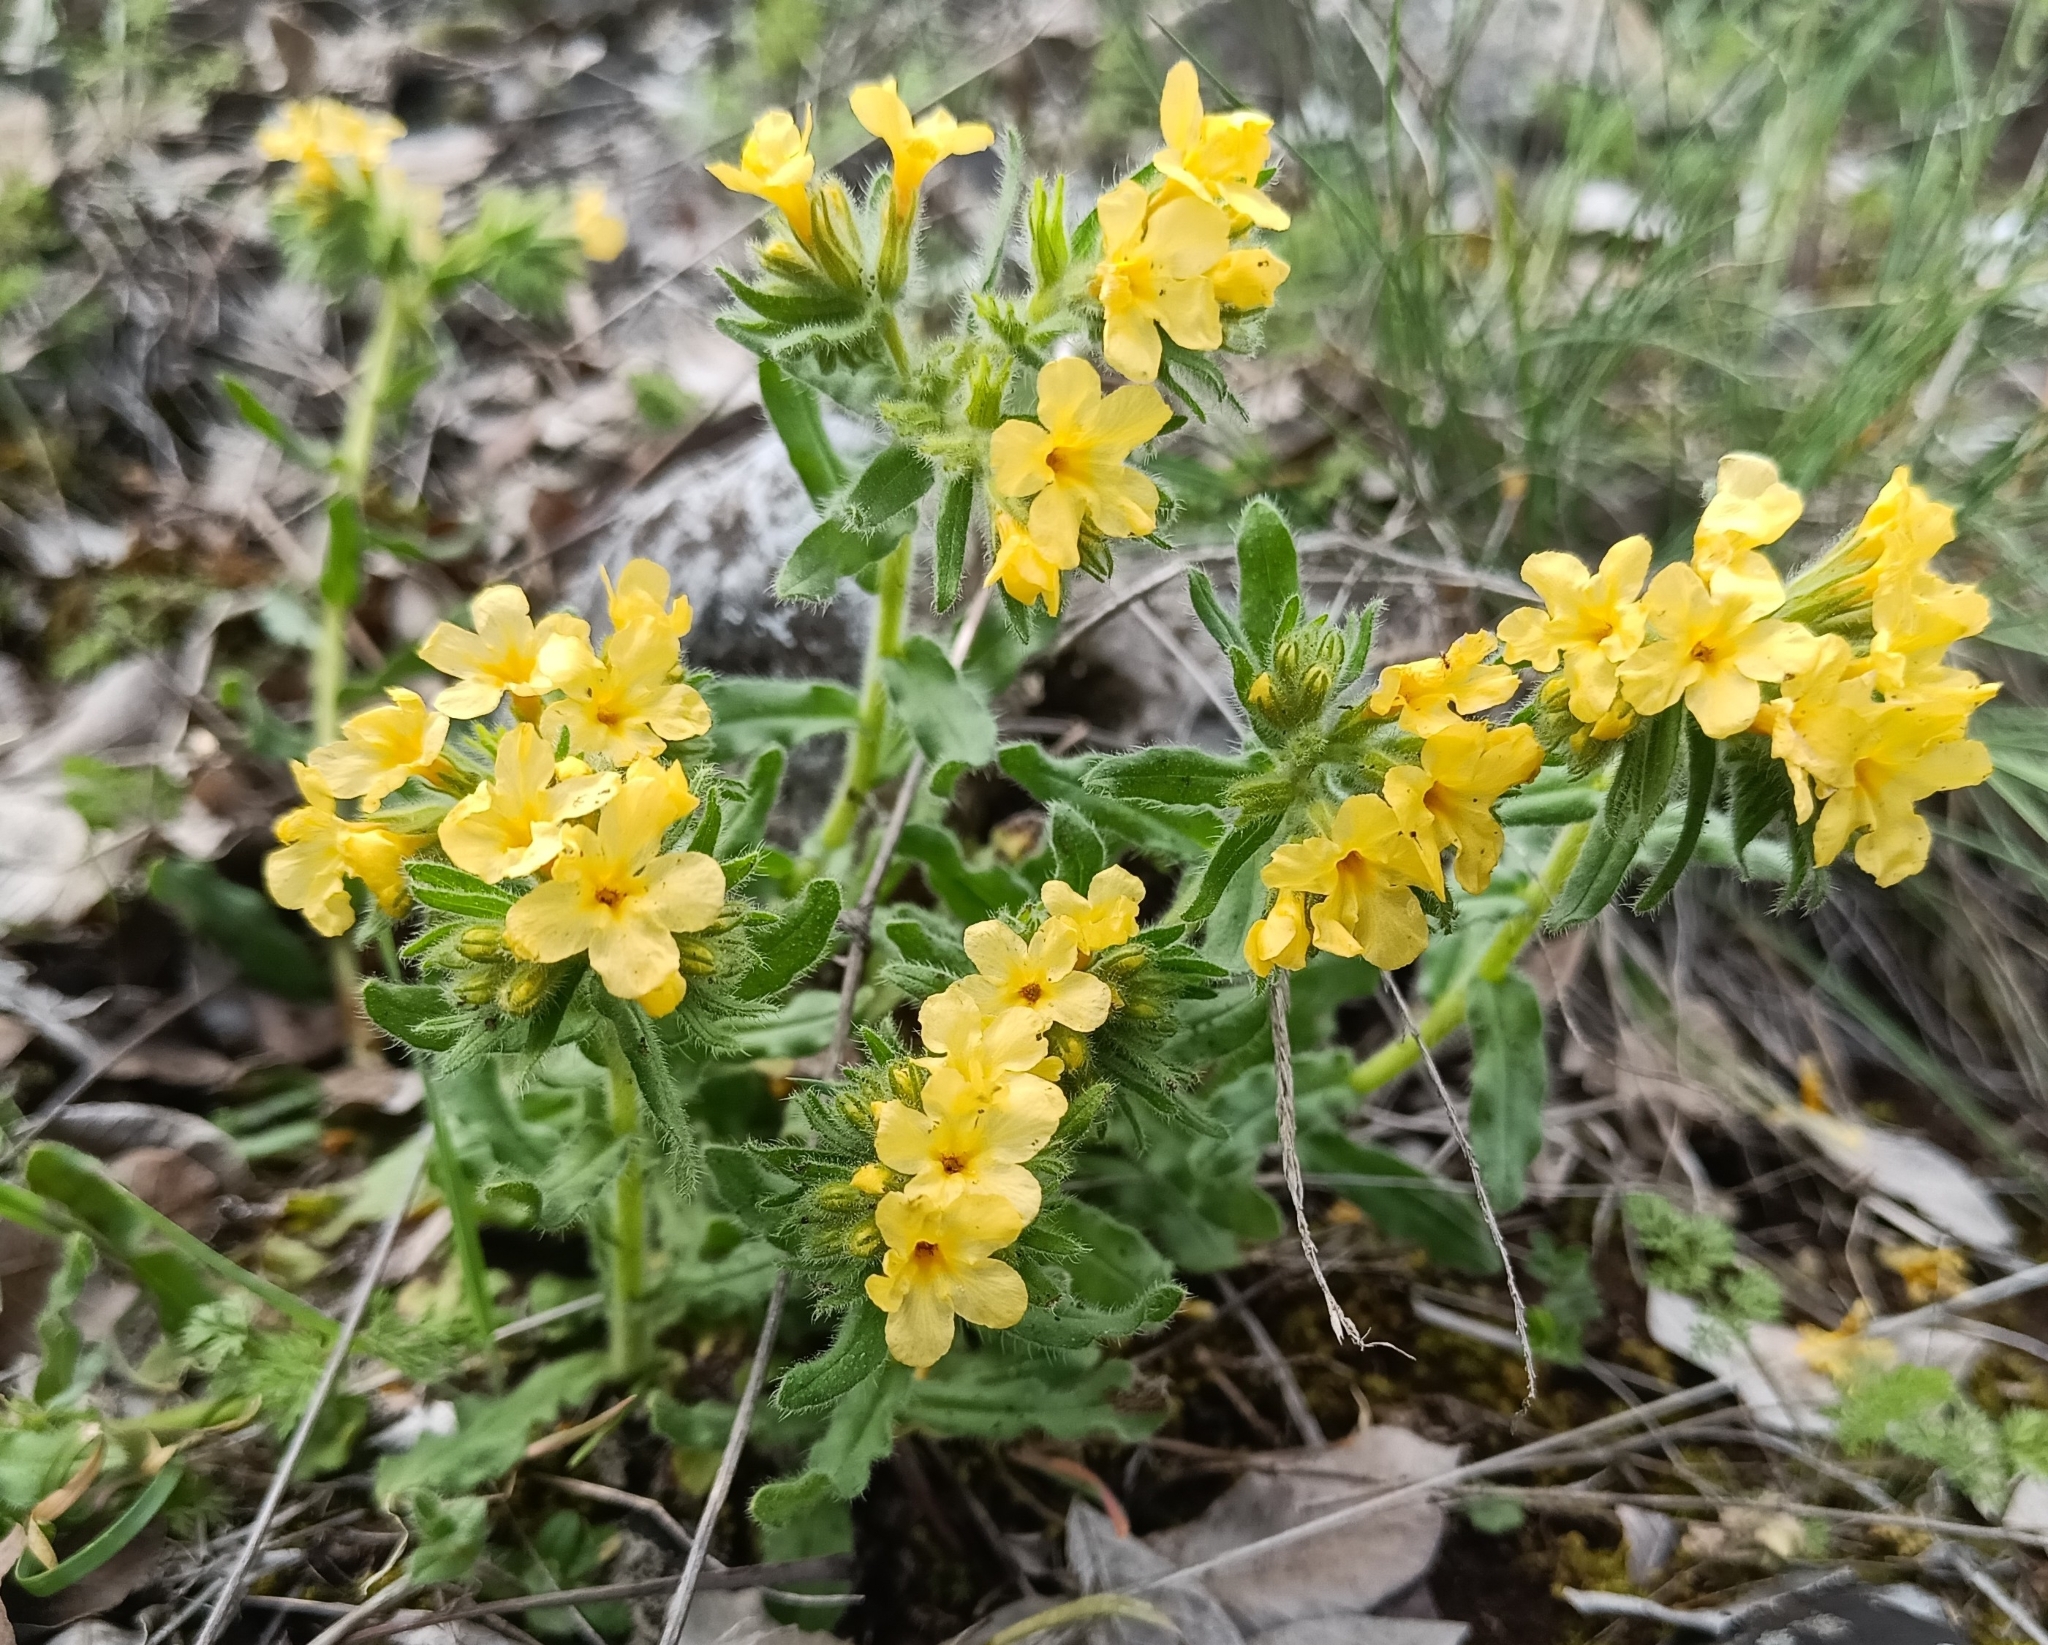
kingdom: Plantae
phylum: Tracheophyta
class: Magnoliopsida
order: Boraginales
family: Boraginaceae
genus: Alkanna
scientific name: Alkanna primuliflora
